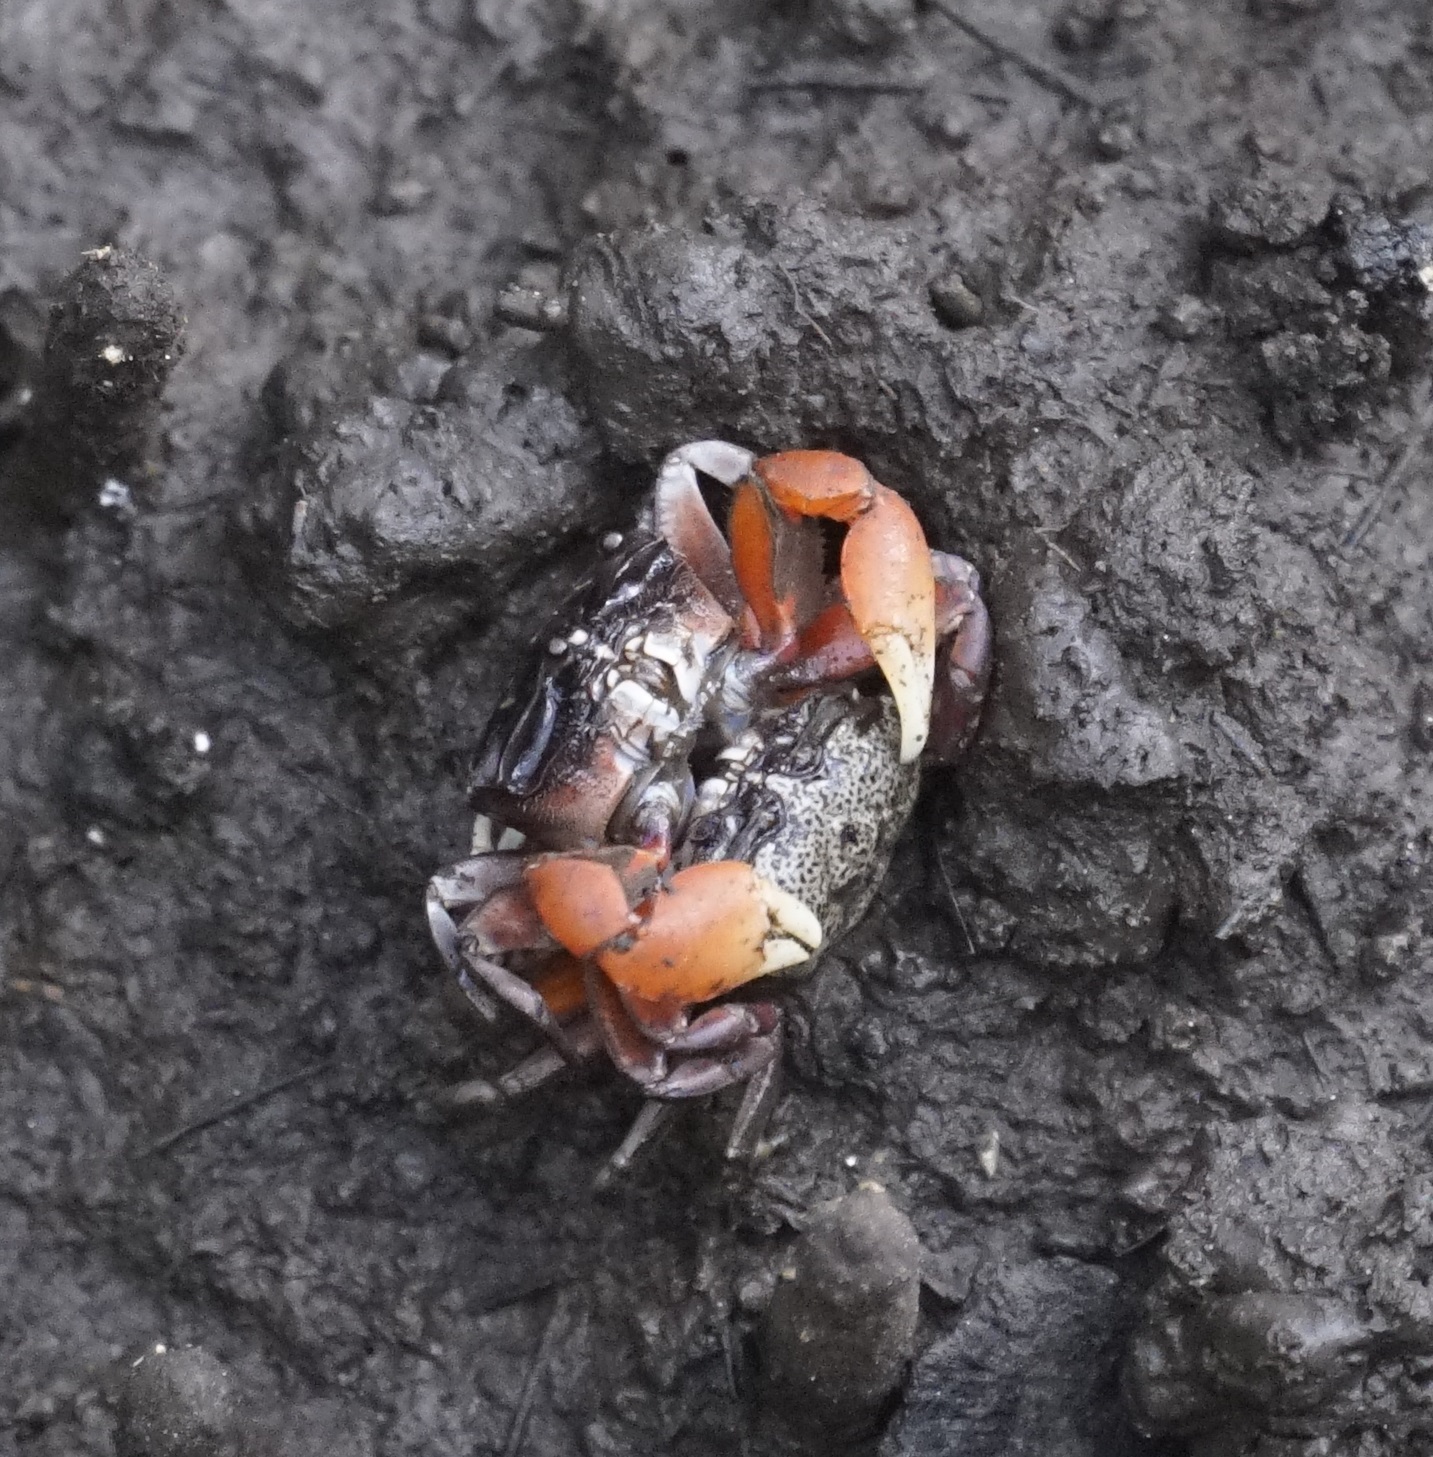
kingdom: Animalia
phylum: Arthropoda
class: Malacostraca
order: Decapoda
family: Heloeciidae
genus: Heloecius
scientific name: Heloecius cordiformis
